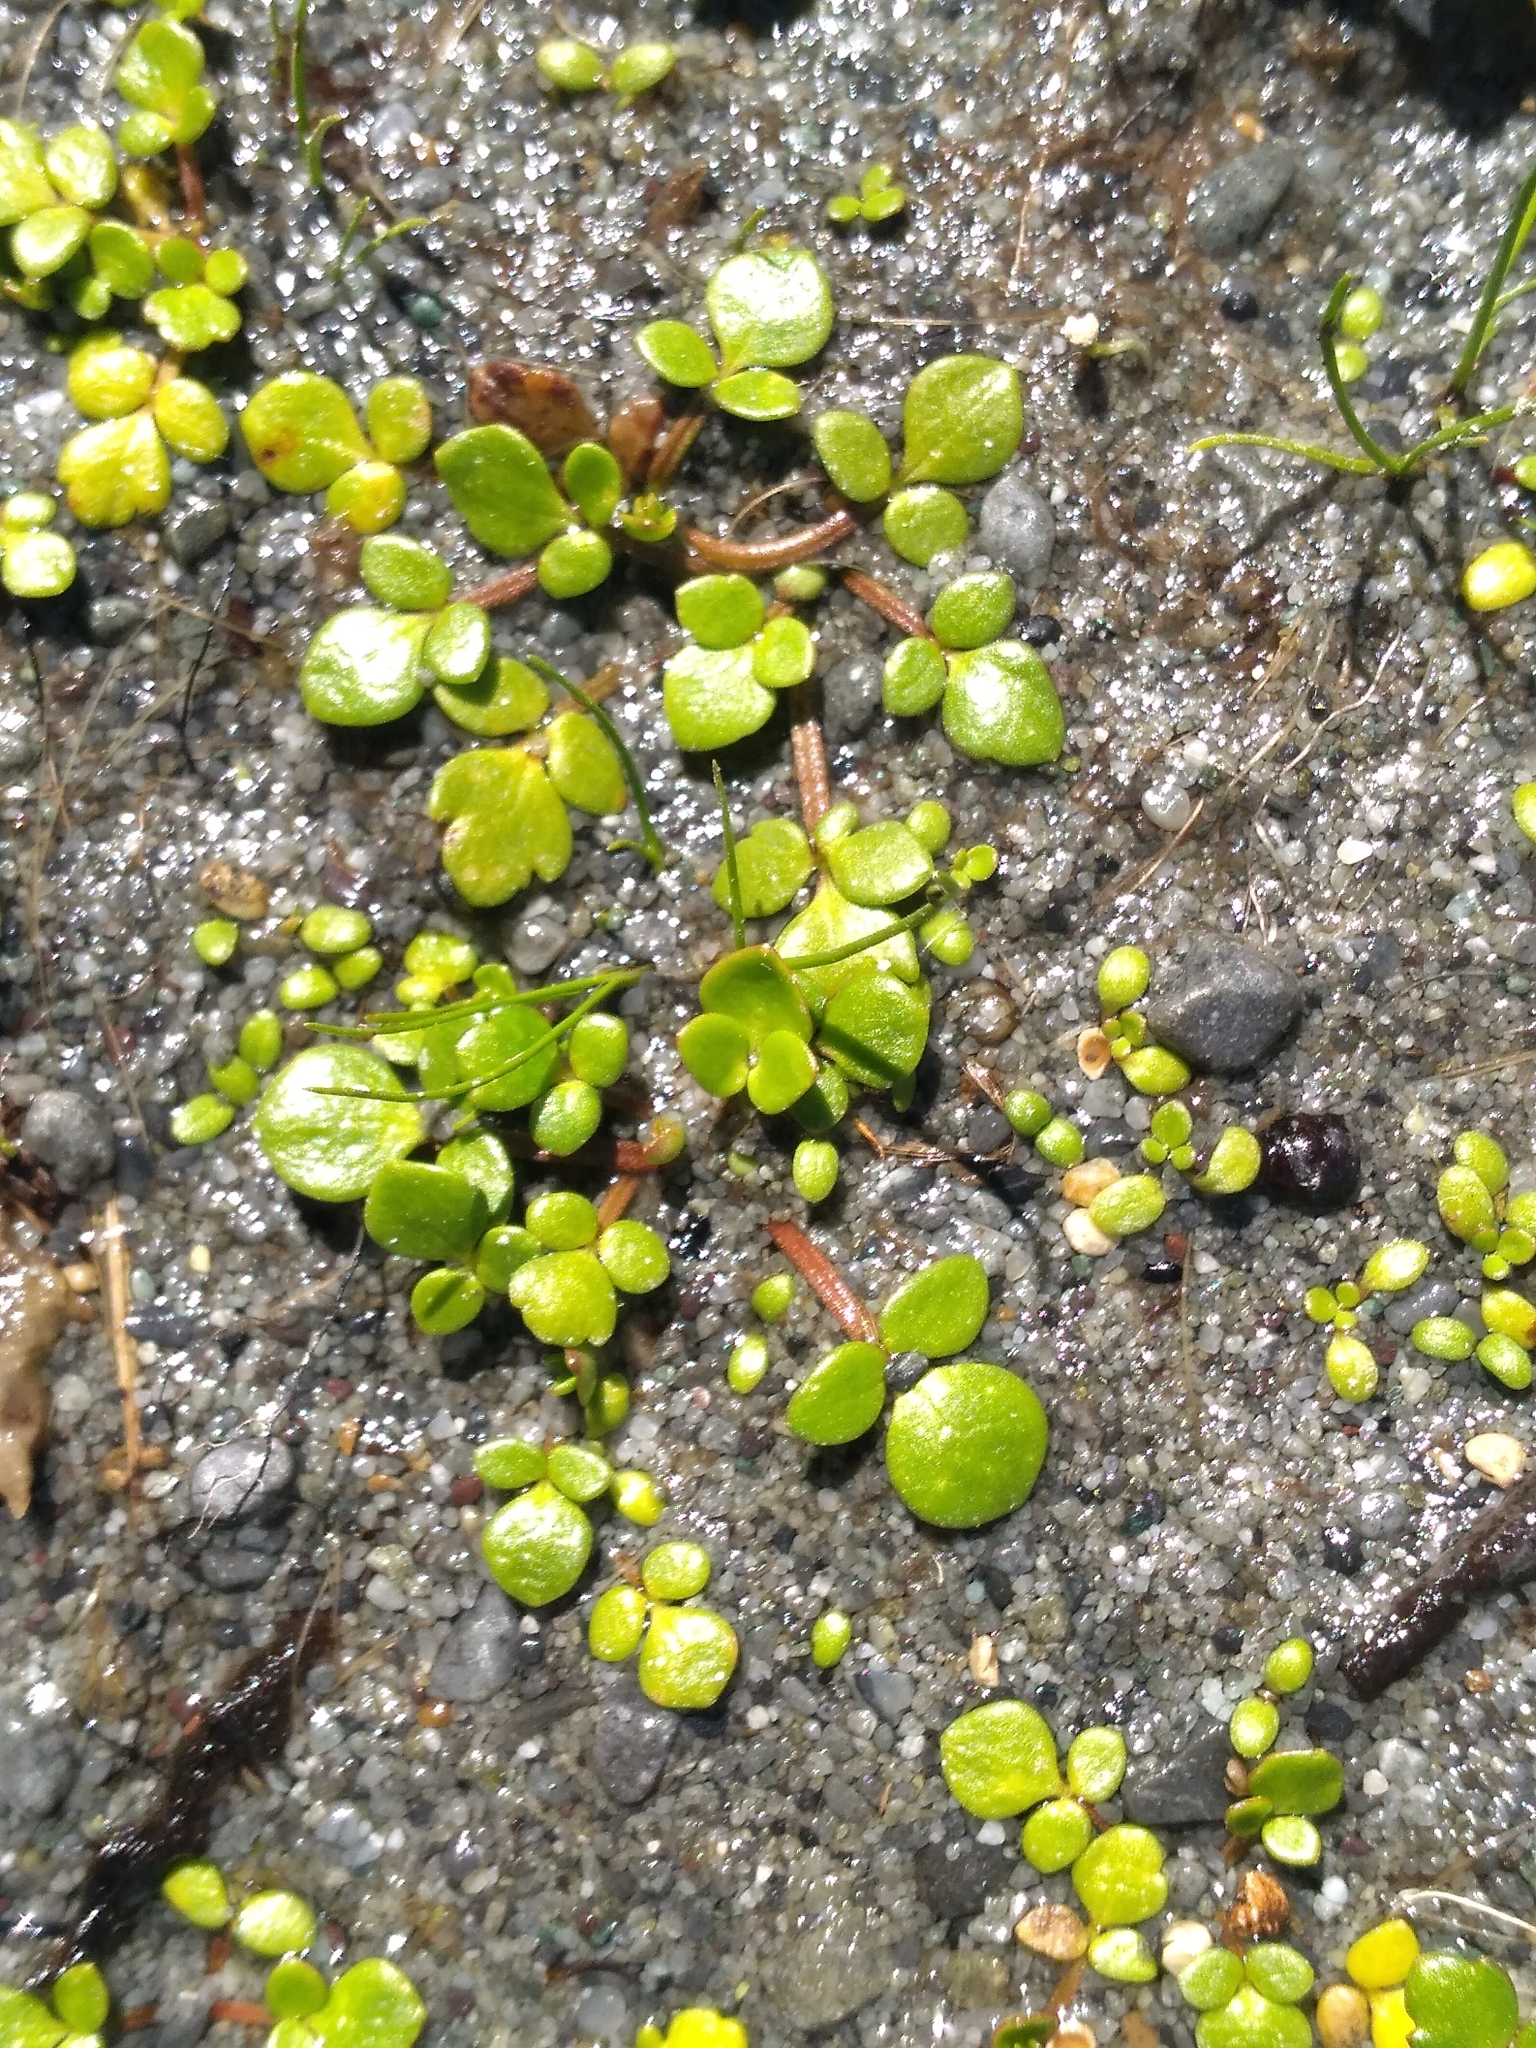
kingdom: Plantae
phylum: Tracheophyta
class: Magnoliopsida
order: Ranunculales
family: Ranunculaceae
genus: Ranunculus
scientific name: Ranunculus acaulis
